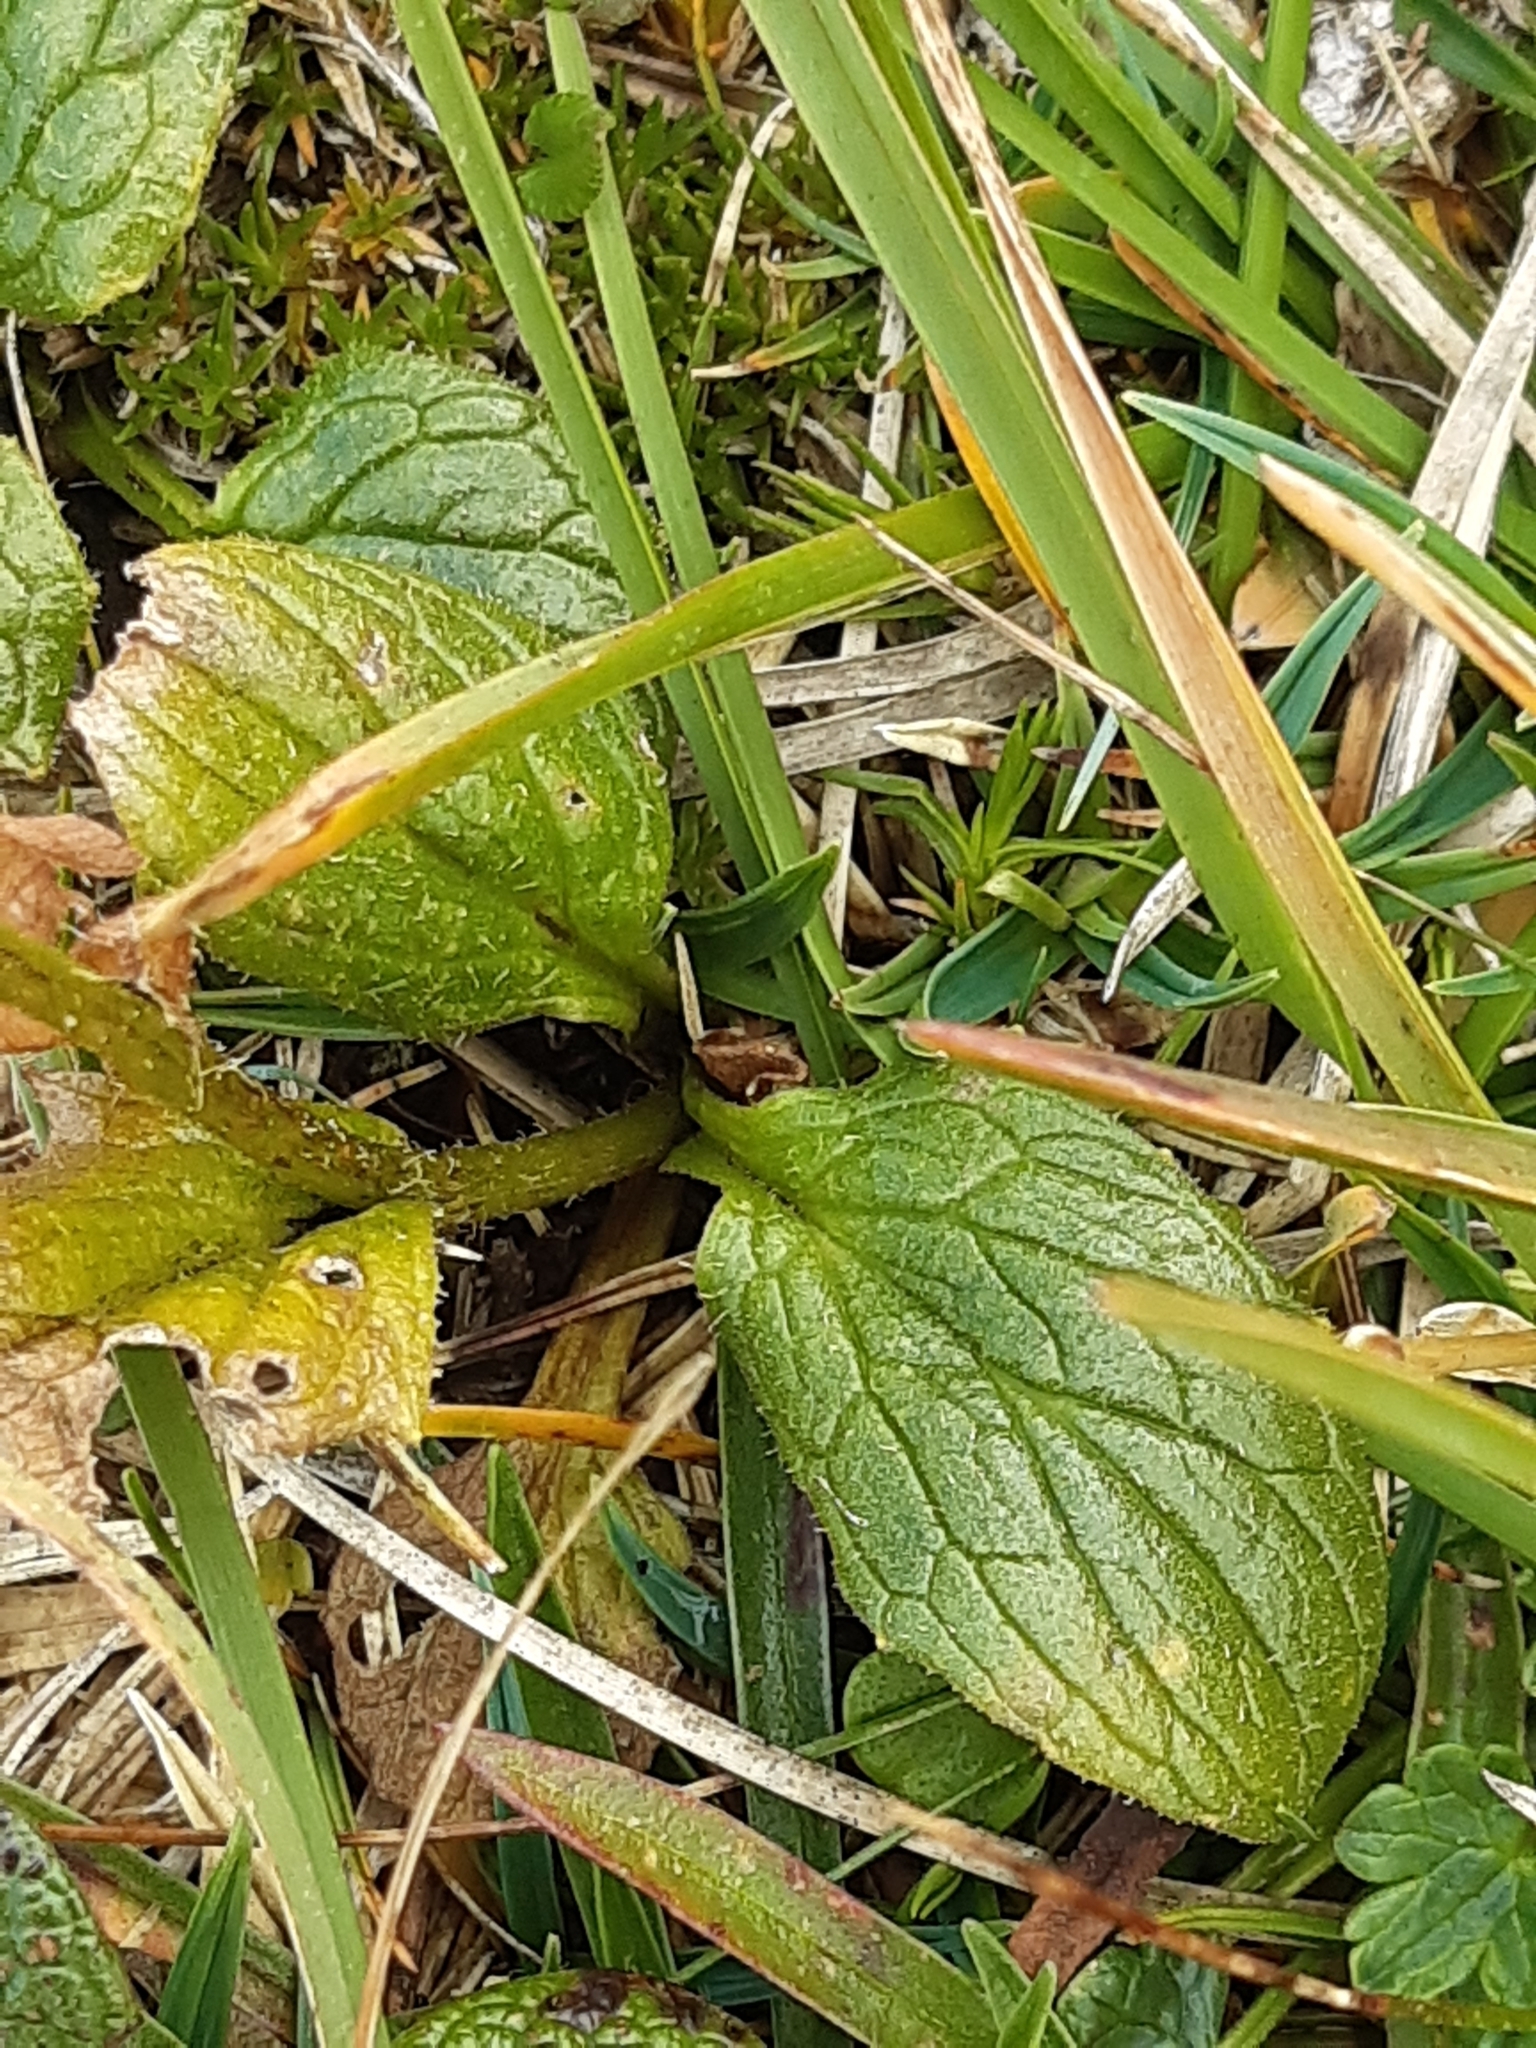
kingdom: Plantae
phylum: Tracheophyta
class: Magnoliopsida
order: Asterales
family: Asteraceae
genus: Doronicum
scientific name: Doronicum clusii
